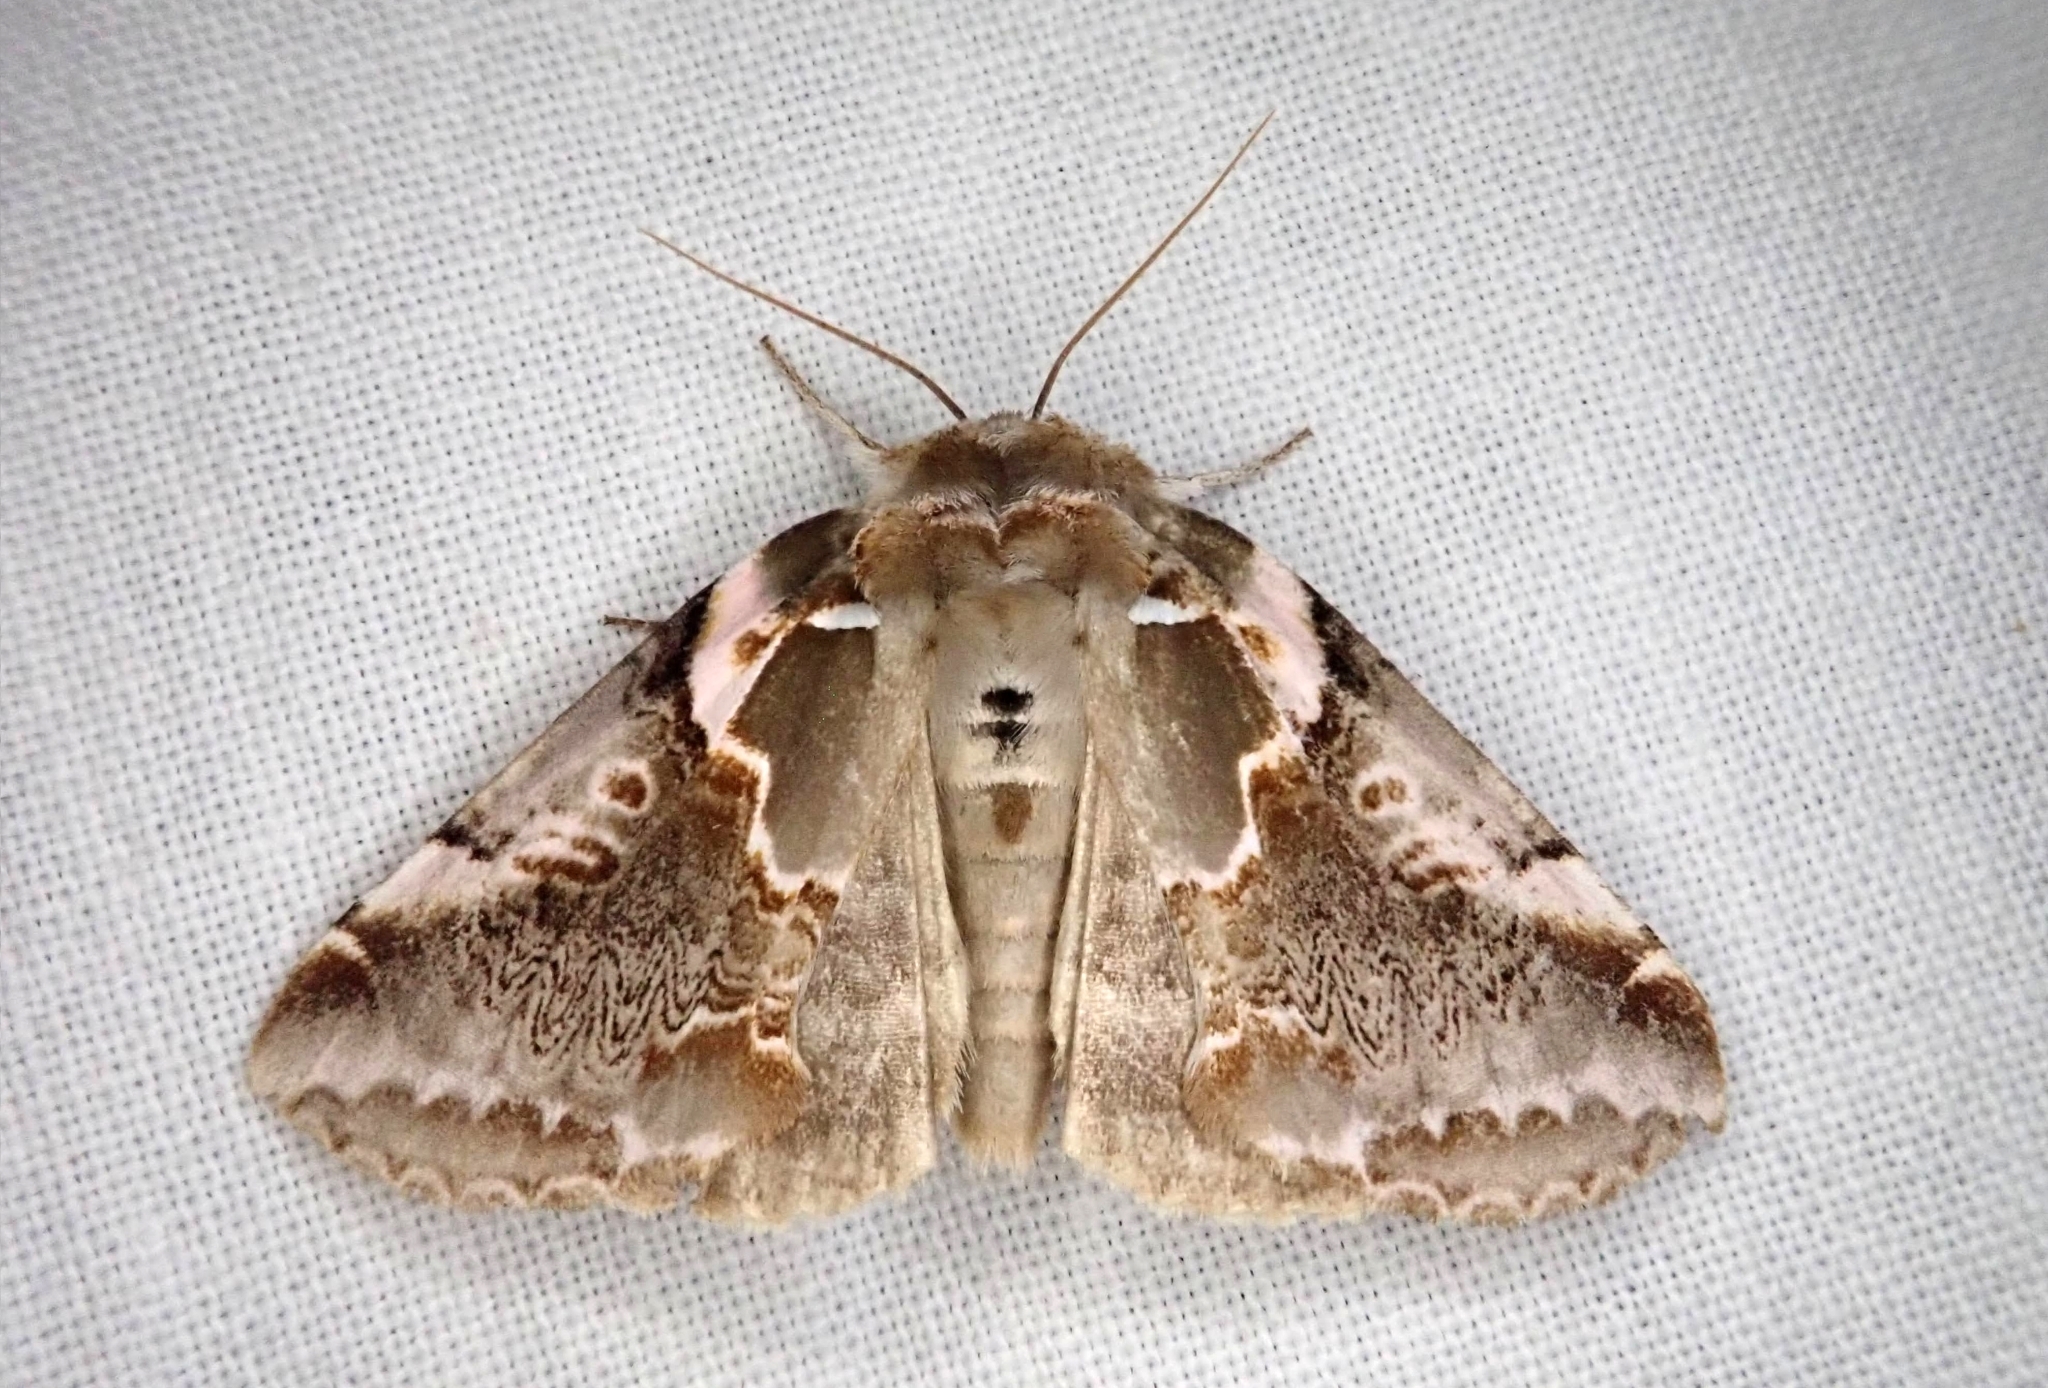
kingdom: Animalia
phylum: Arthropoda
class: Insecta
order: Lepidoptera
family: Drepanidae
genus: Habrosyne
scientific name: Habrosyne gloriosa
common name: Glorious habrosyne moth
